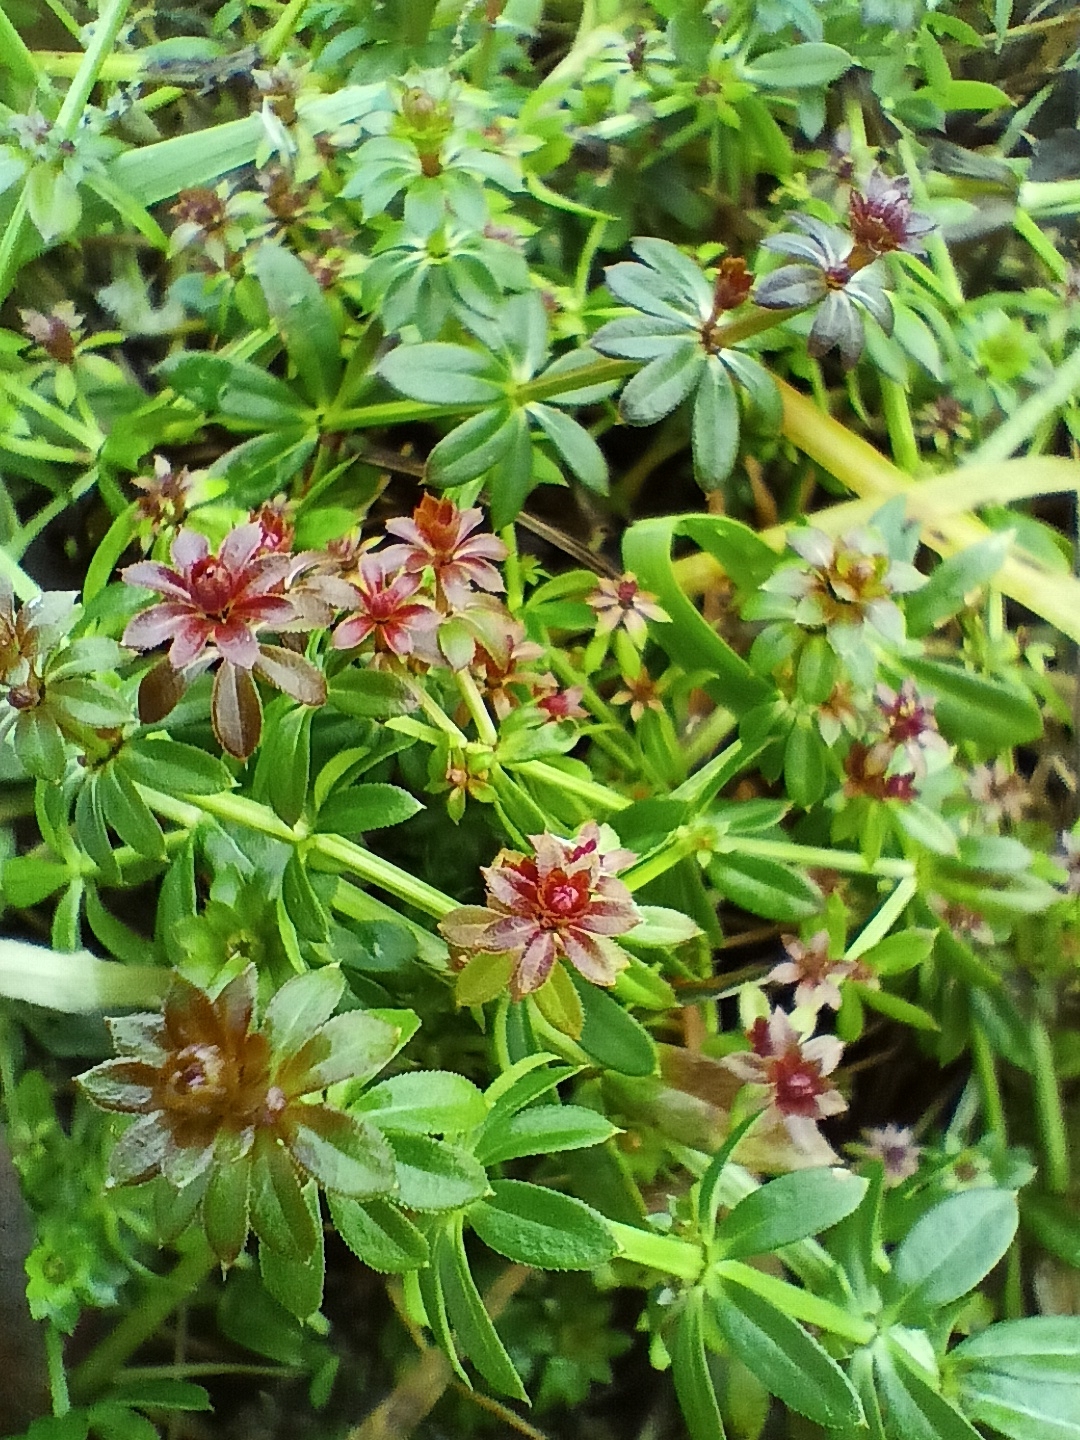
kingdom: Plantae
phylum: Tracheophyta
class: Magnoliopsida
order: Gentianales
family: Rubiaceae
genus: Galium
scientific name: Galium mollugo
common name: Hedge bedstraw
